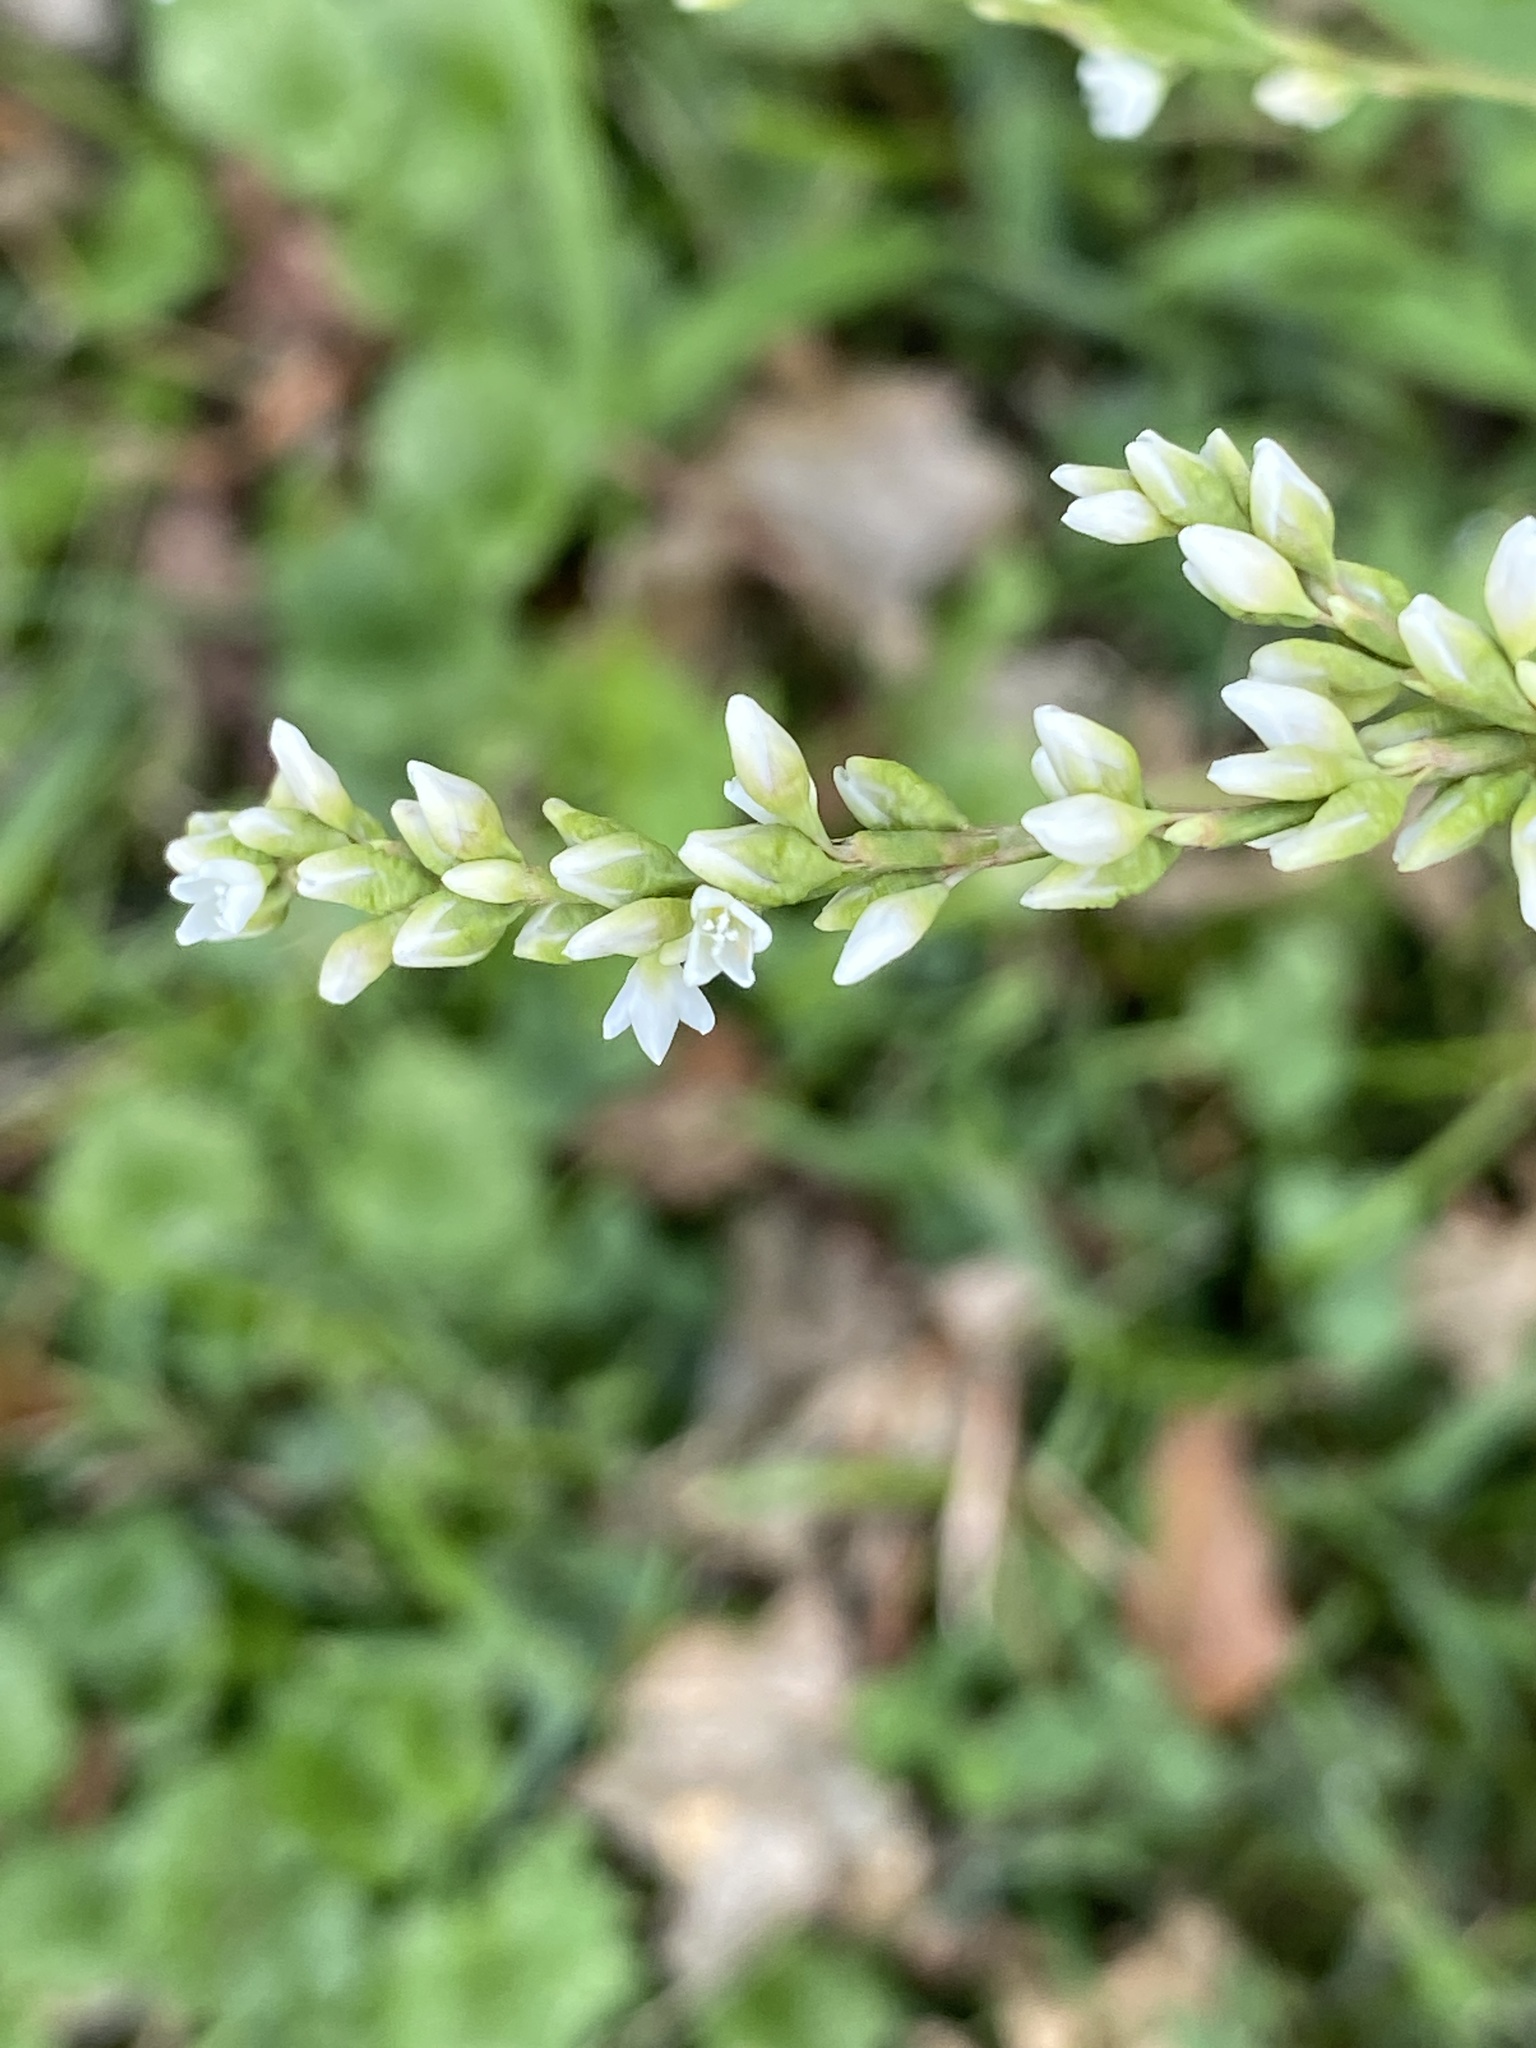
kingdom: Plantae
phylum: Tracheophyta
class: Magnoliopsida
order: Caryophyllales
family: Polygonaceae
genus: Persicaria
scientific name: Persicaria punctata
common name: Dotted smartweed
